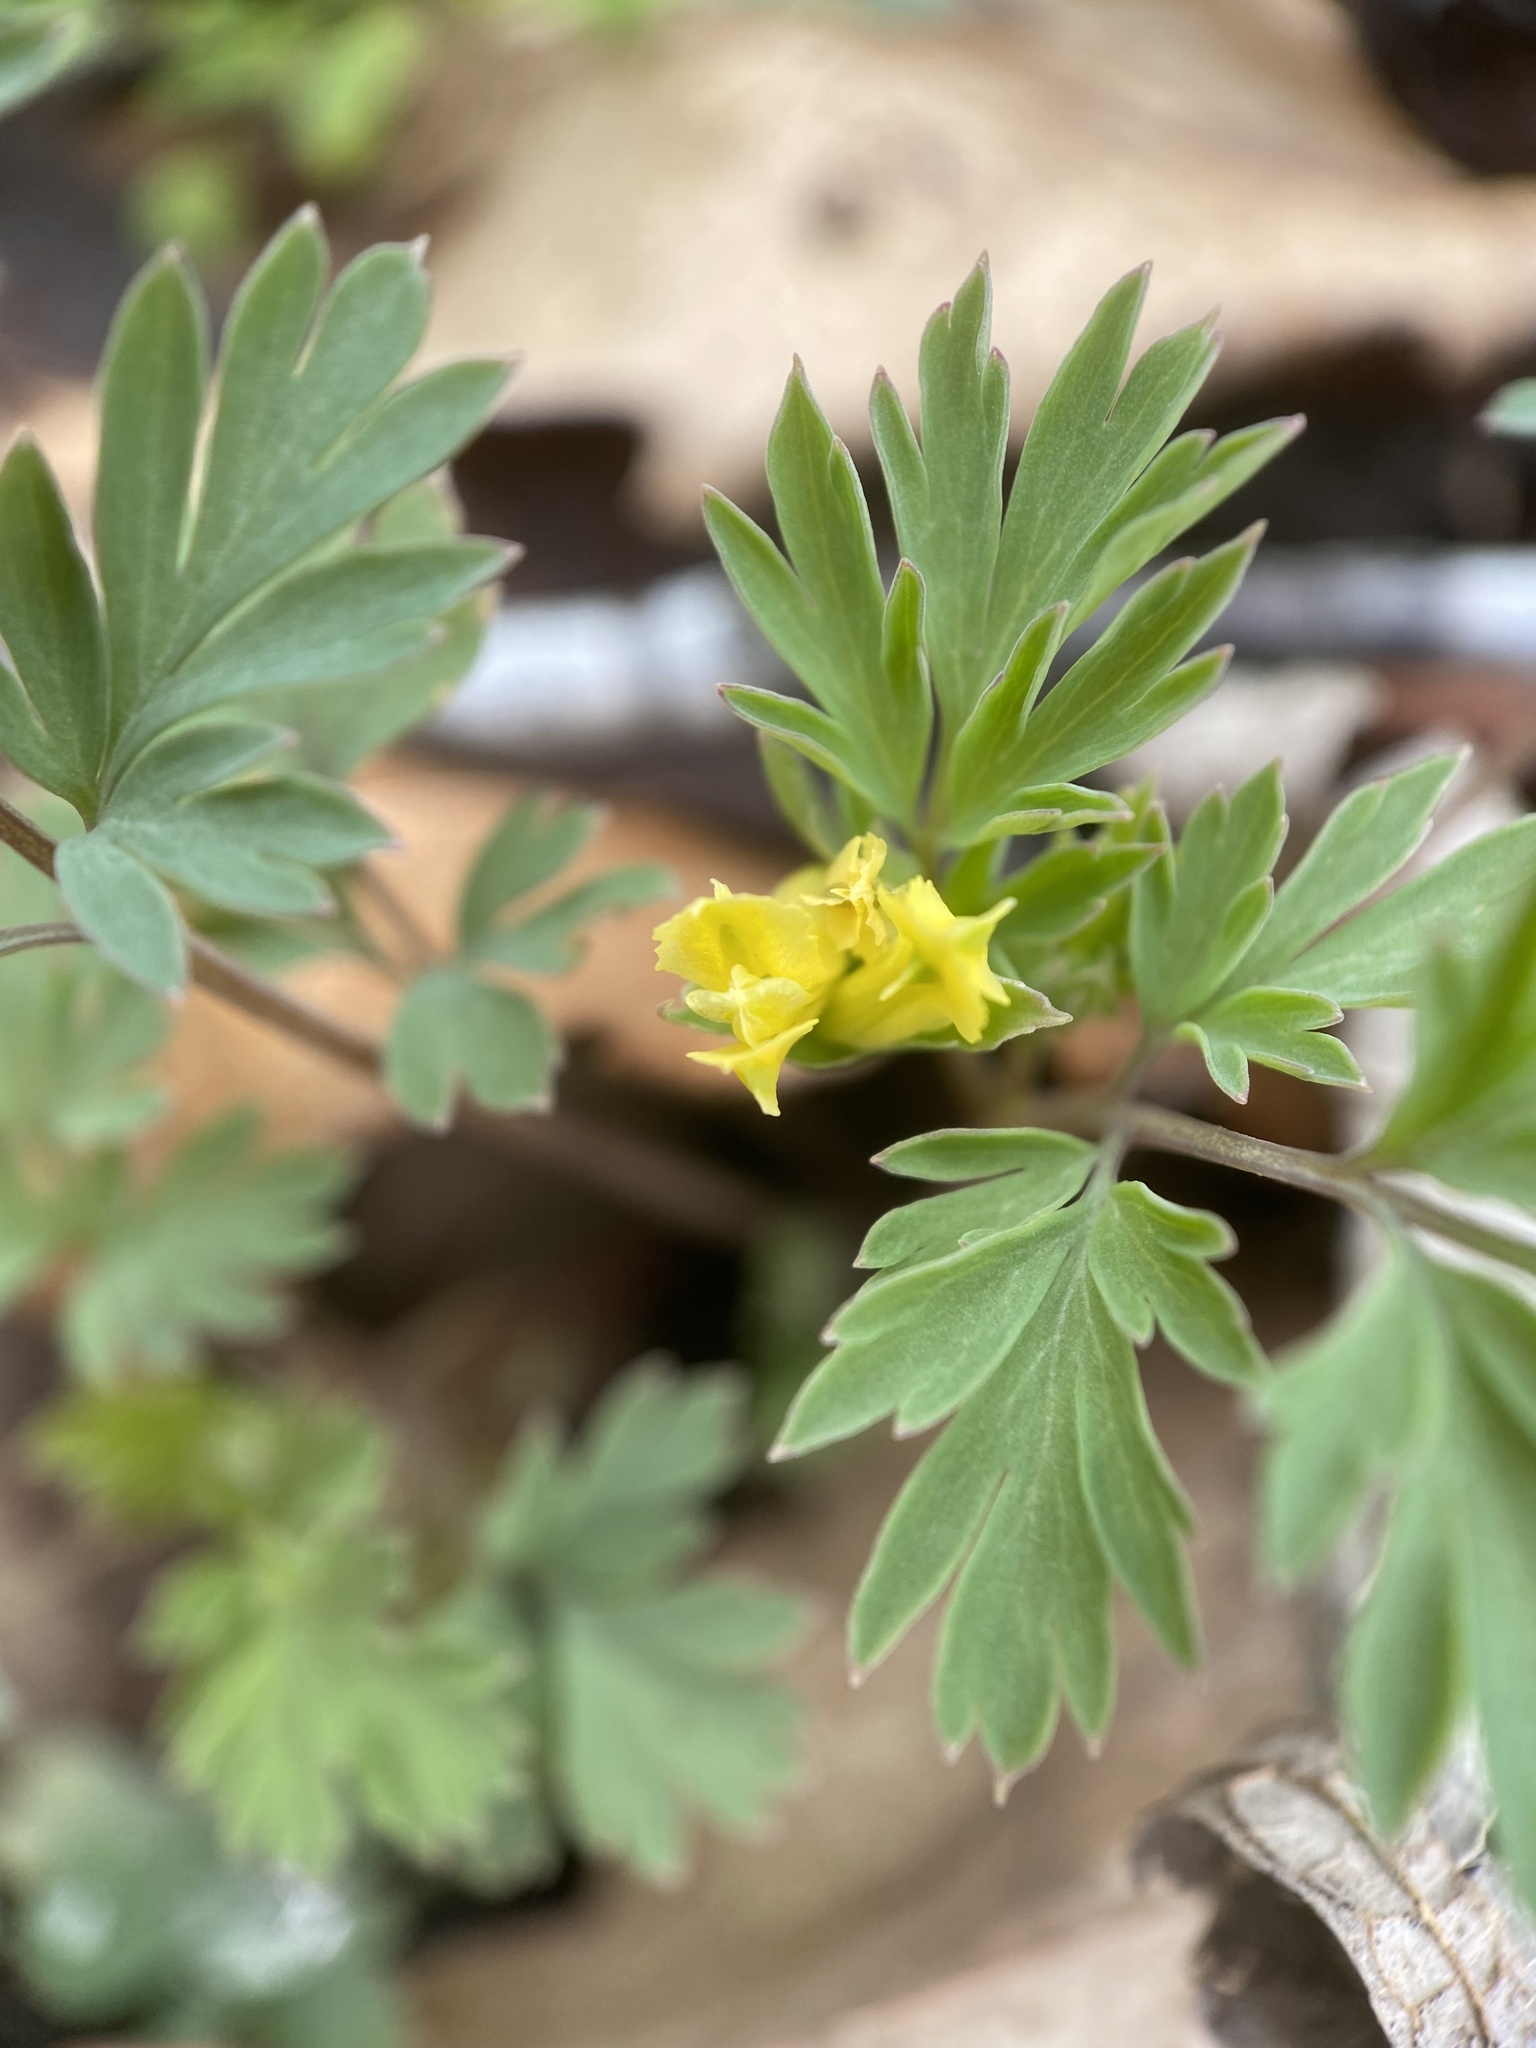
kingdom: Plantae
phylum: Tracheophyta
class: Magnoliopsida
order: Ranunculales
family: Papaveraceae
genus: Corydalis
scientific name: Corydalis flavula
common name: Yellow corydalis
